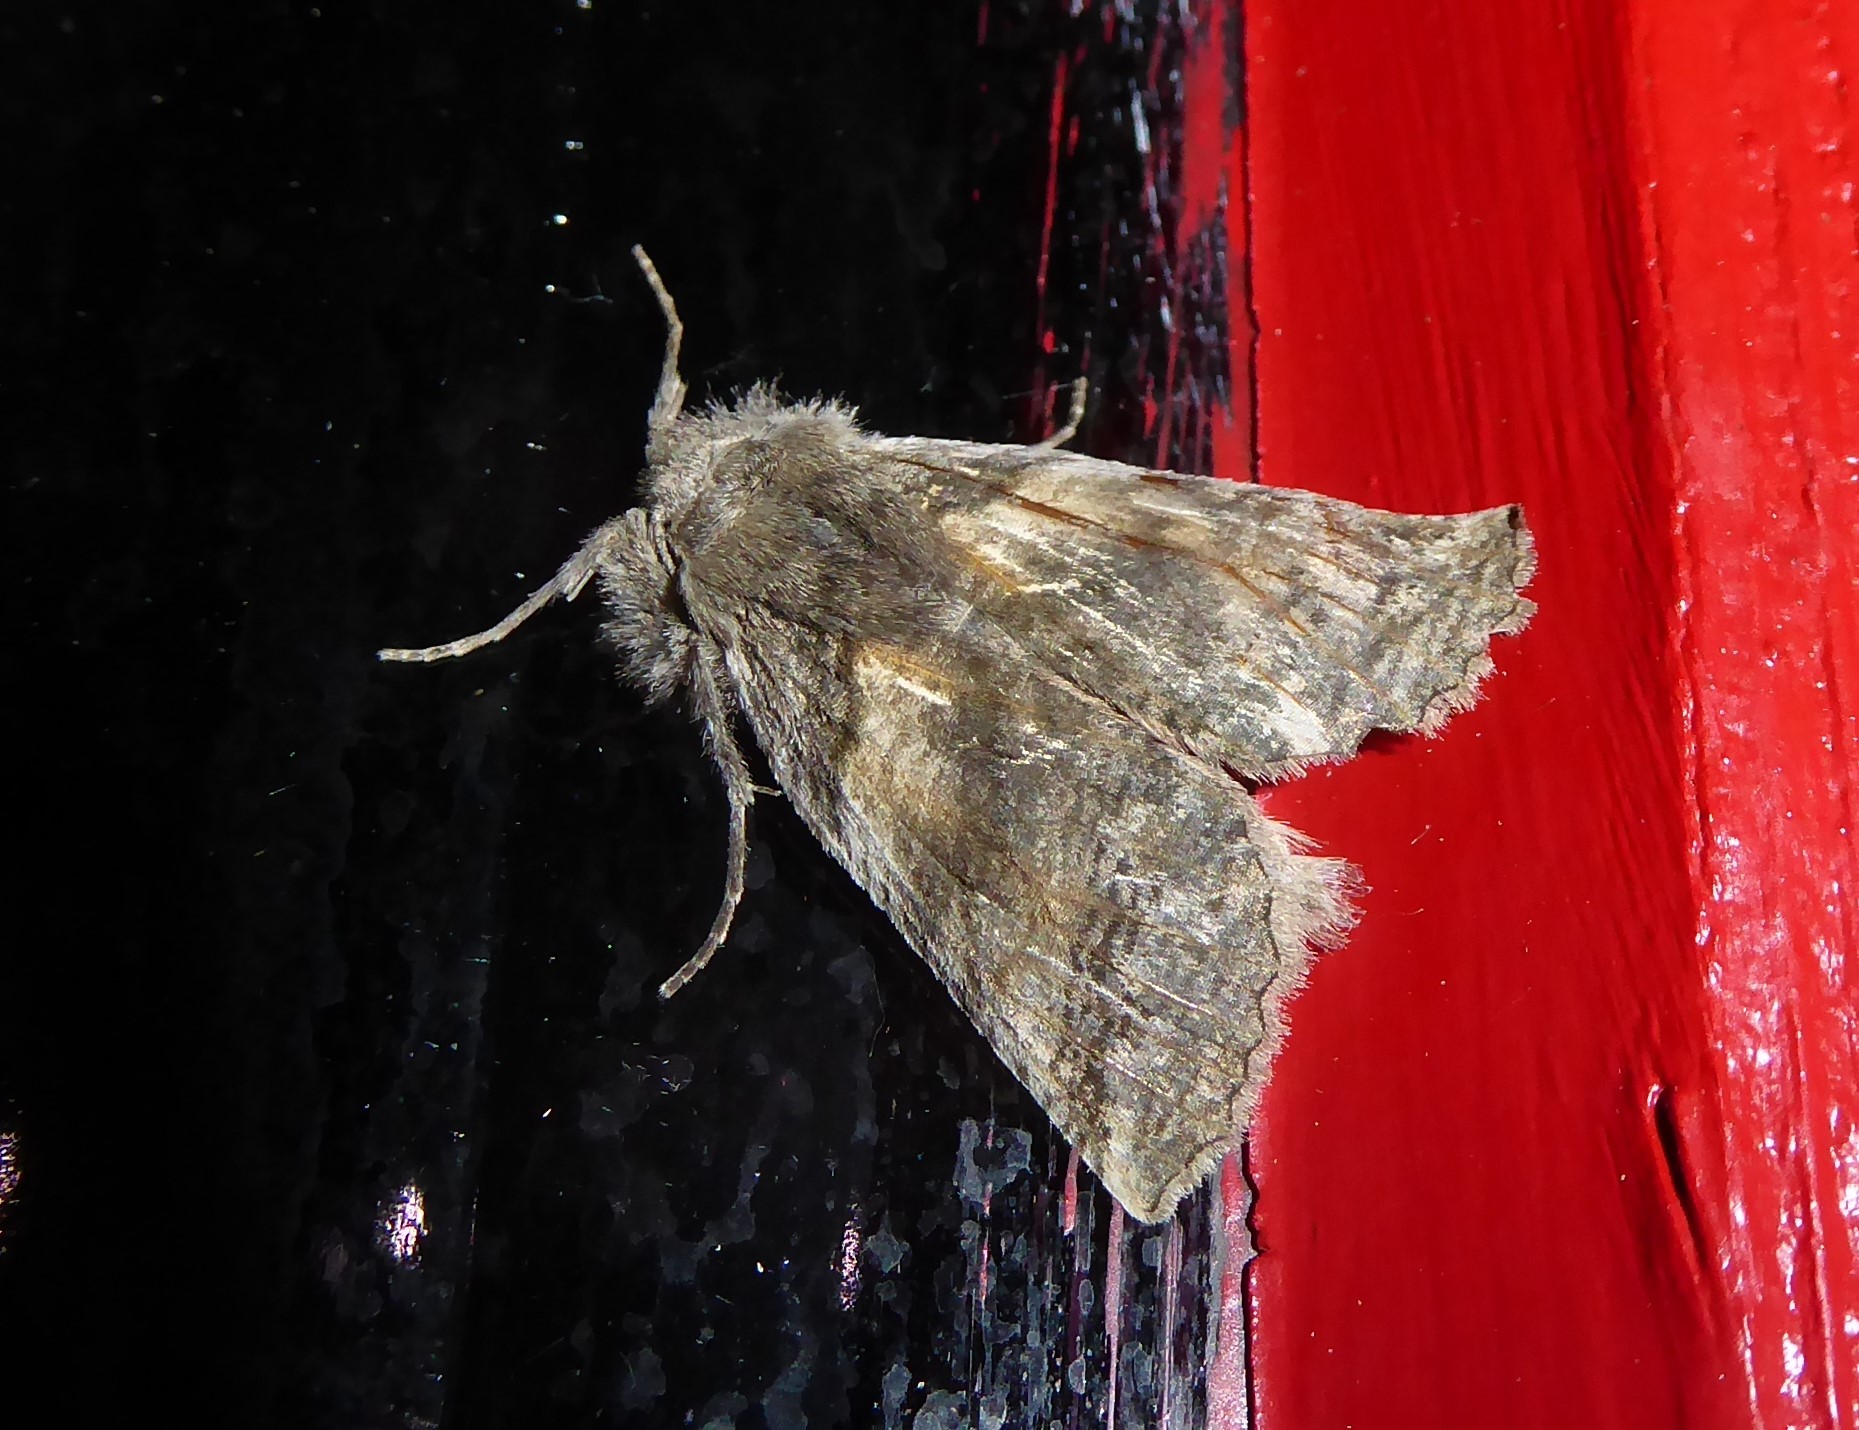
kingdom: Animalia
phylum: Arthropoda
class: Insecta
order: Lepidoptera
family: Geometridae
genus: Declana
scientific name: Declana
